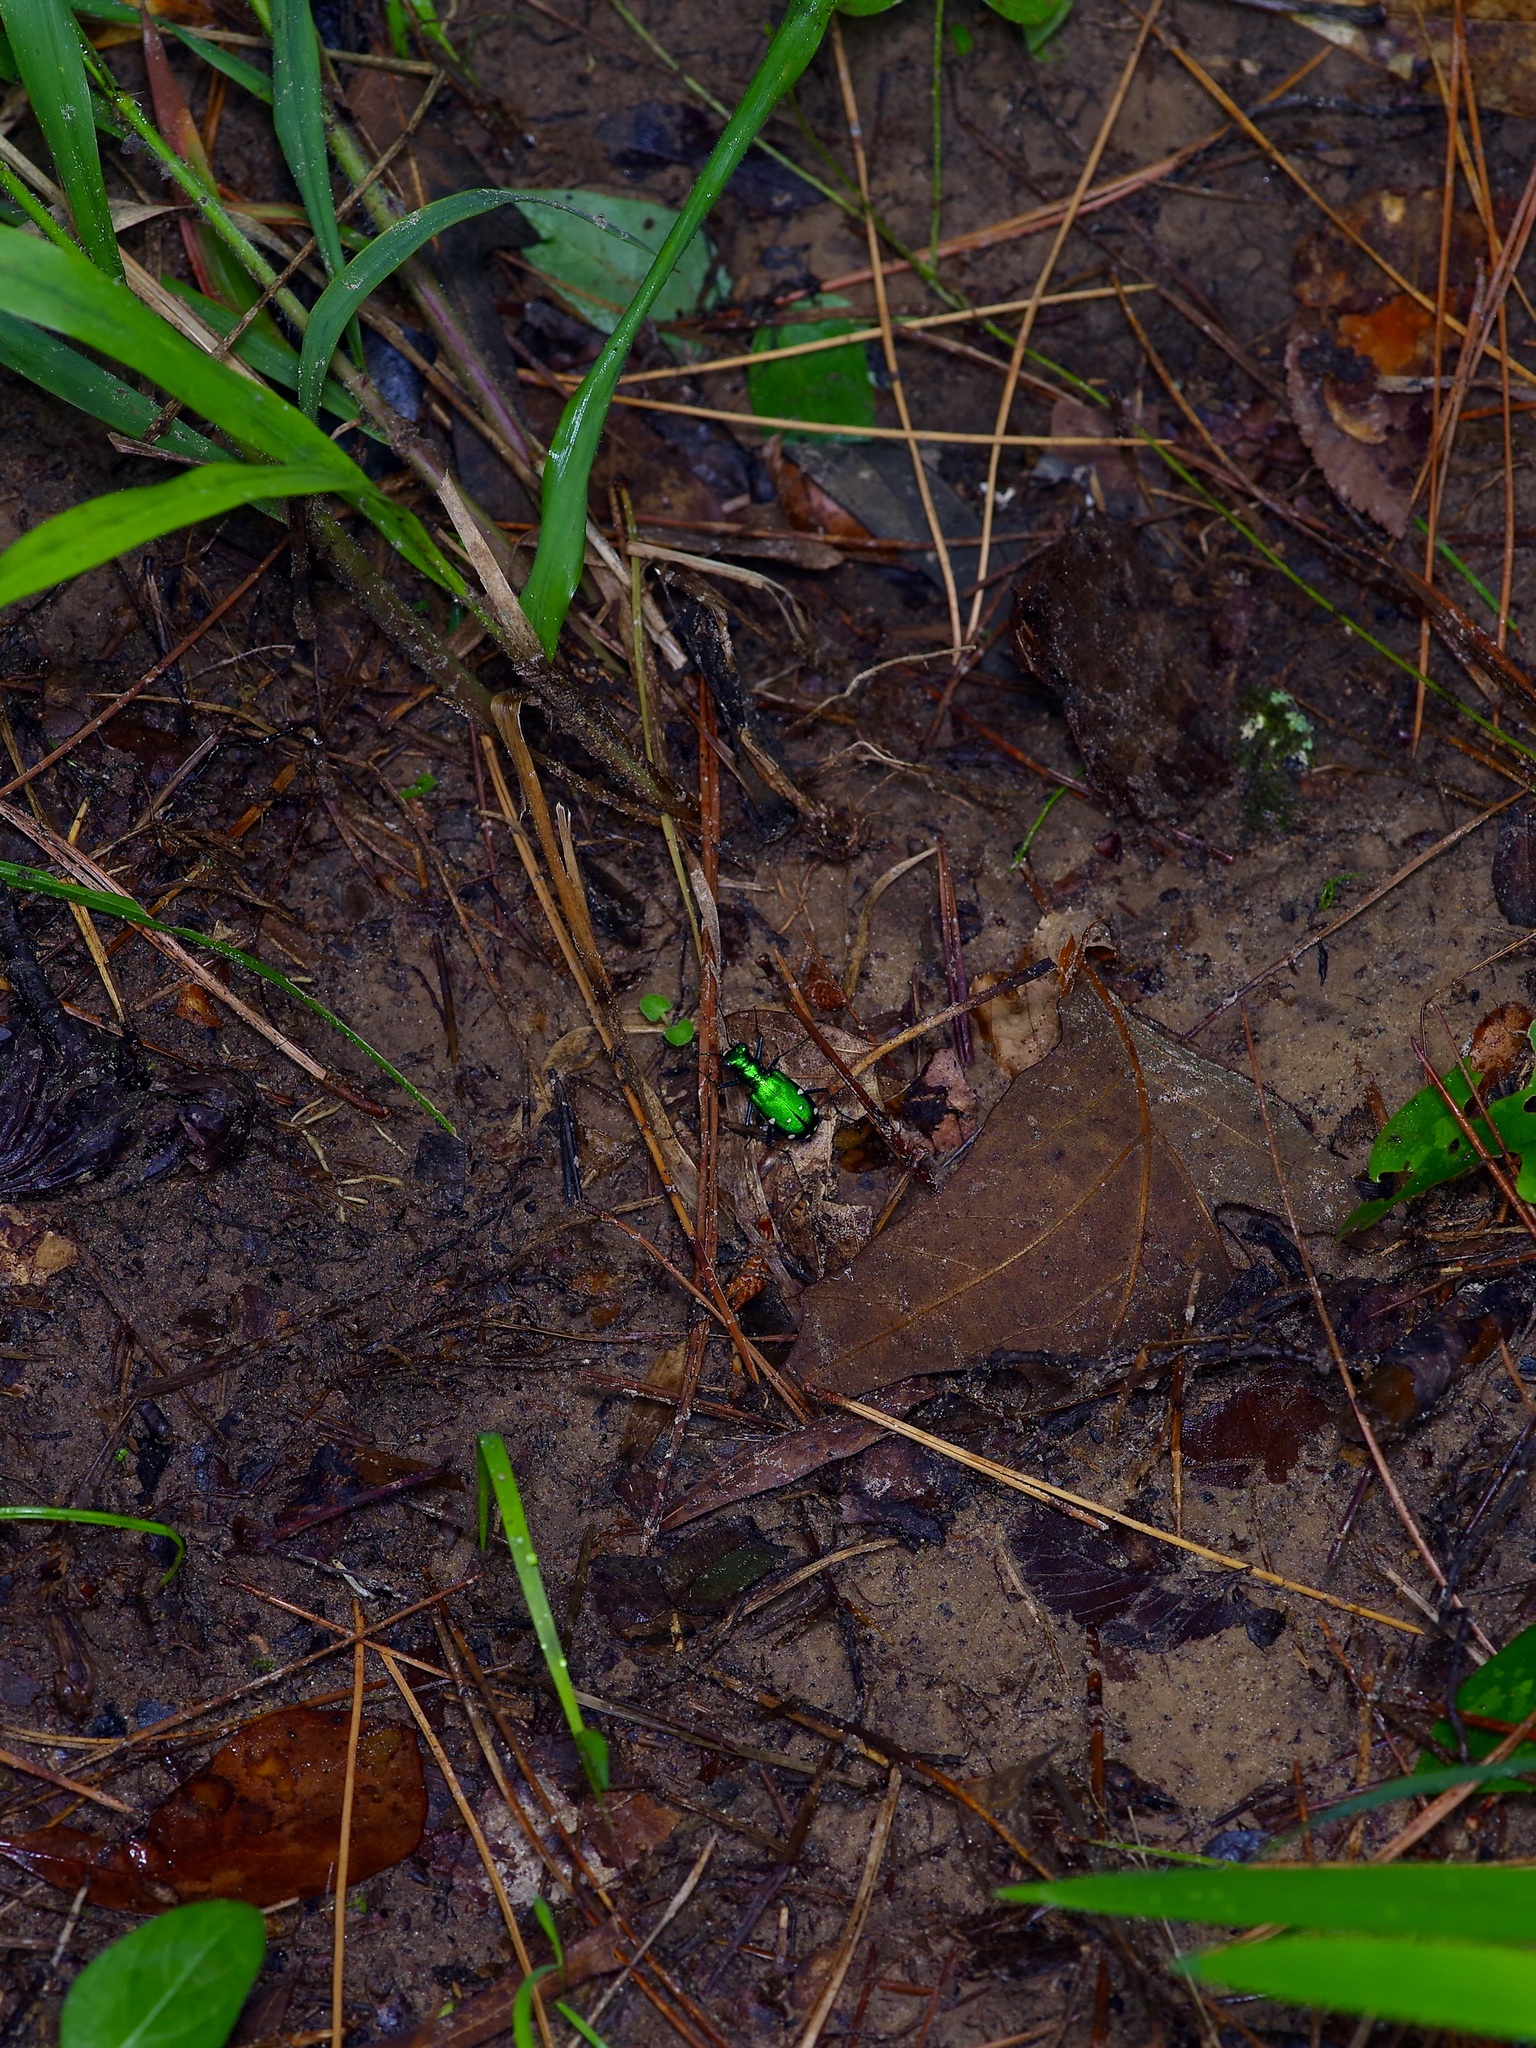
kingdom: Animalia
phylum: Arthropoda
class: Insecta
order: Coleoptera
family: Carabidae
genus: Cicindela
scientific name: Cicindela sexguttata
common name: Six-spotted tiger beetle
